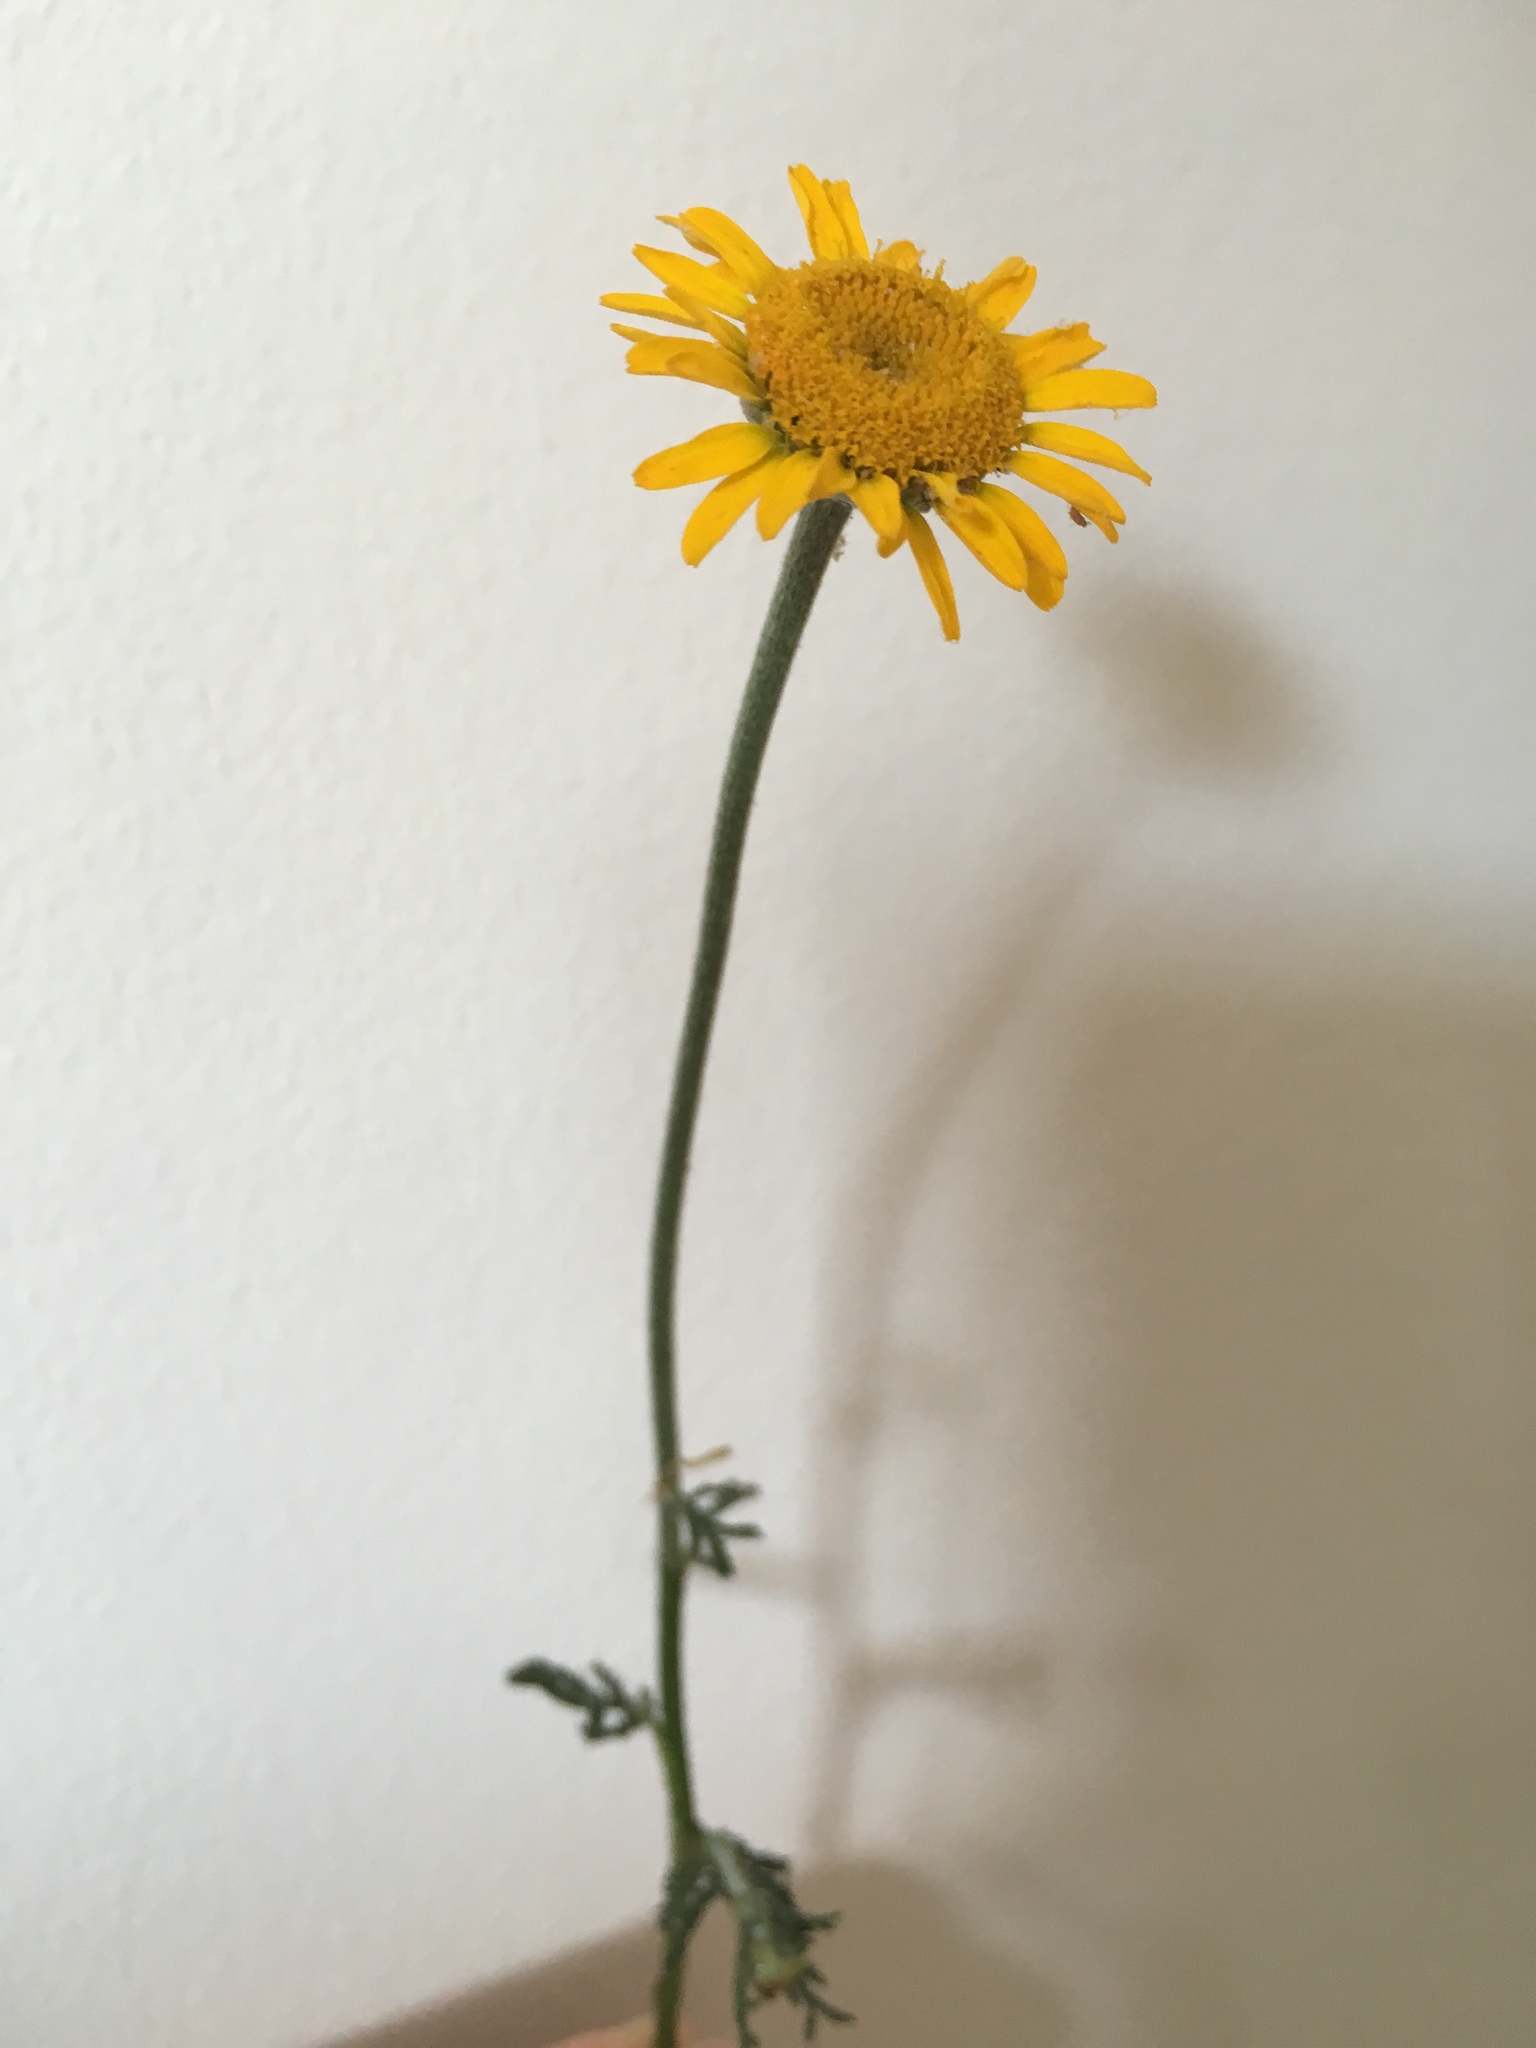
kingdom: Plantae
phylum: Tracheophyta
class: Magnoliopsida
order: Asterales
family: Asteraceae
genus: Cota
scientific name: Cota tinctoria
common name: Golden chamomile
